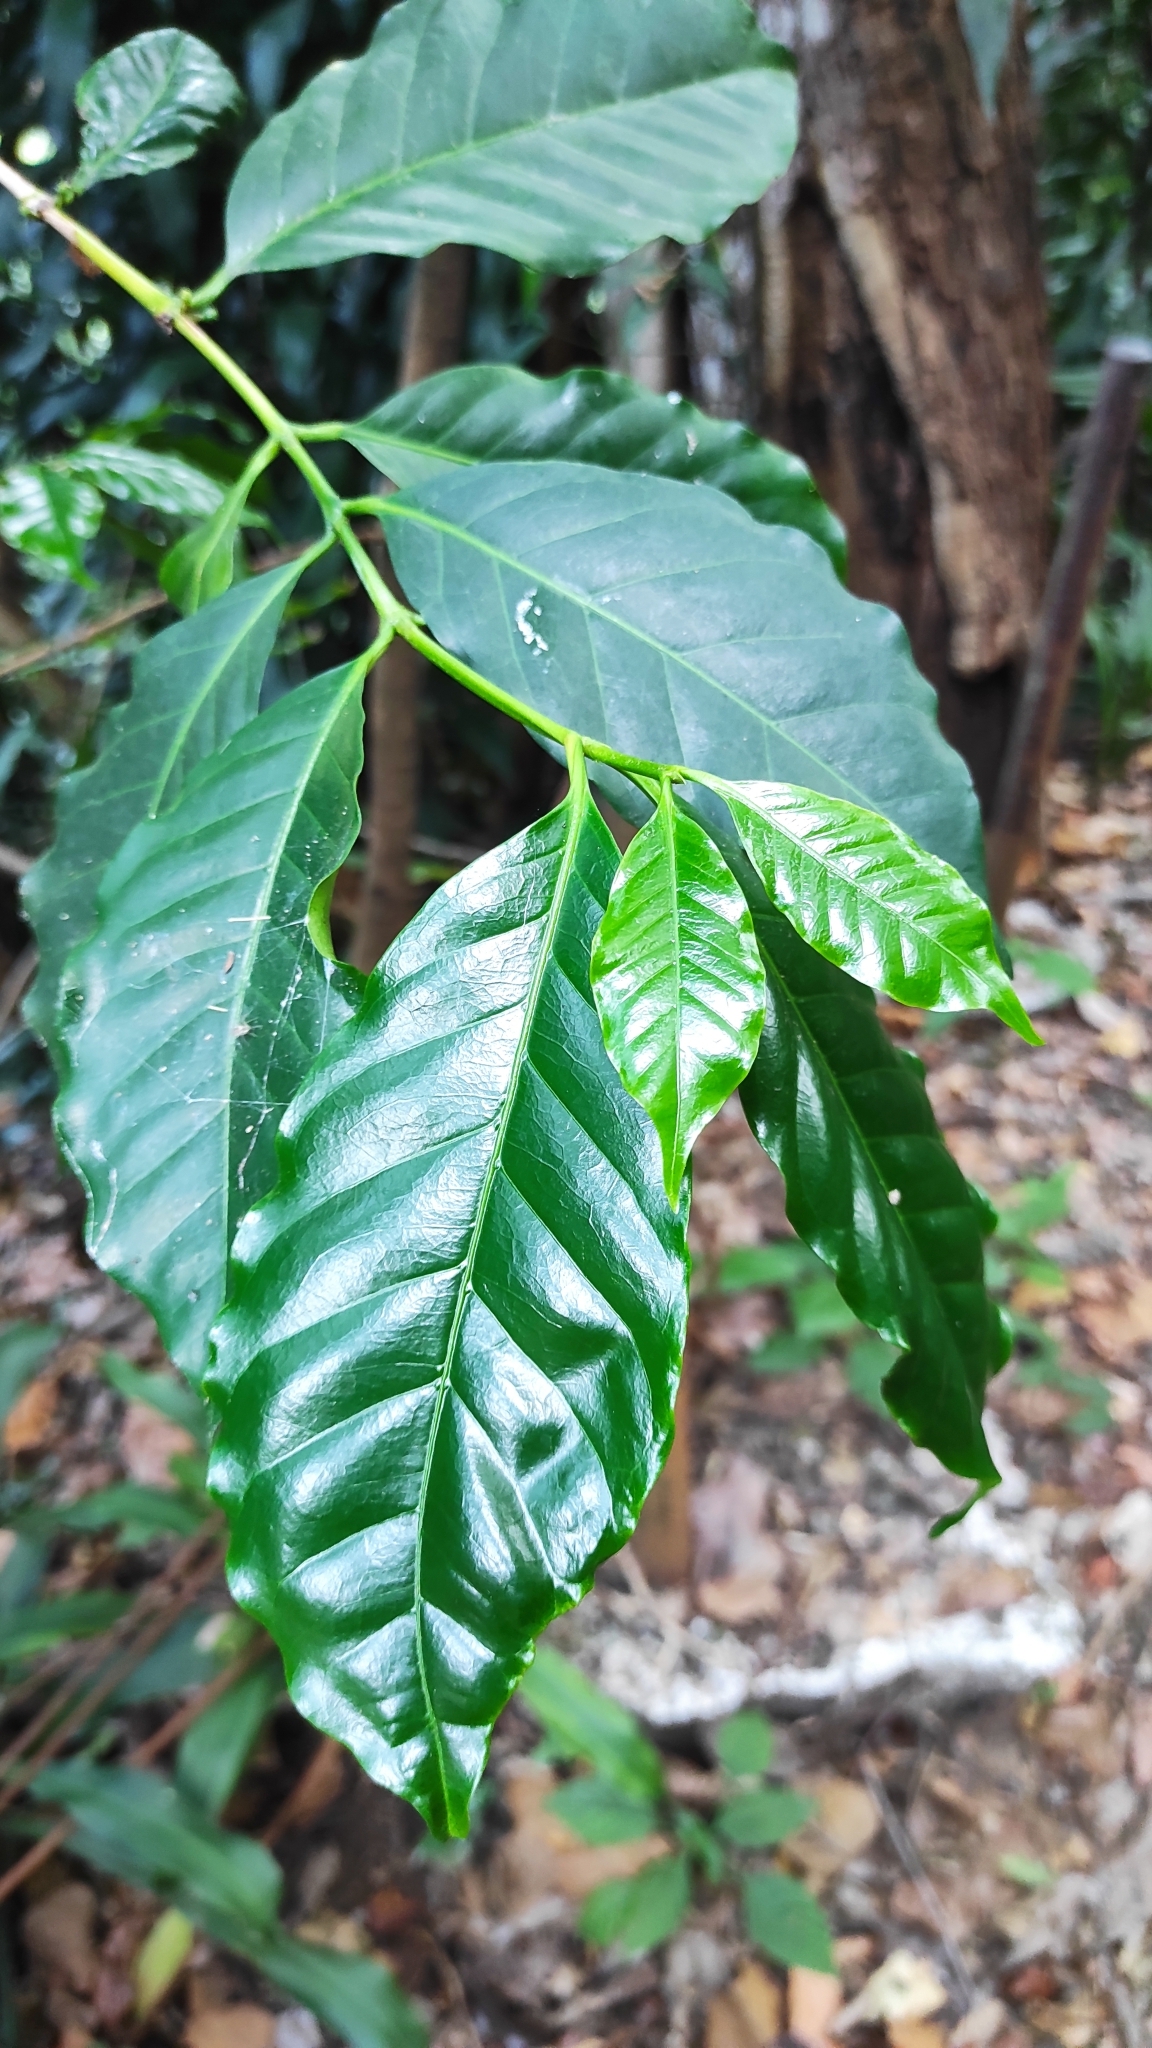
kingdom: Plantae
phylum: Tracheophyta
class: Magnoliopsida
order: Gentianales
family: Rubiaceae
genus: Coffea
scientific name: Coffea arabica
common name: Coffee
